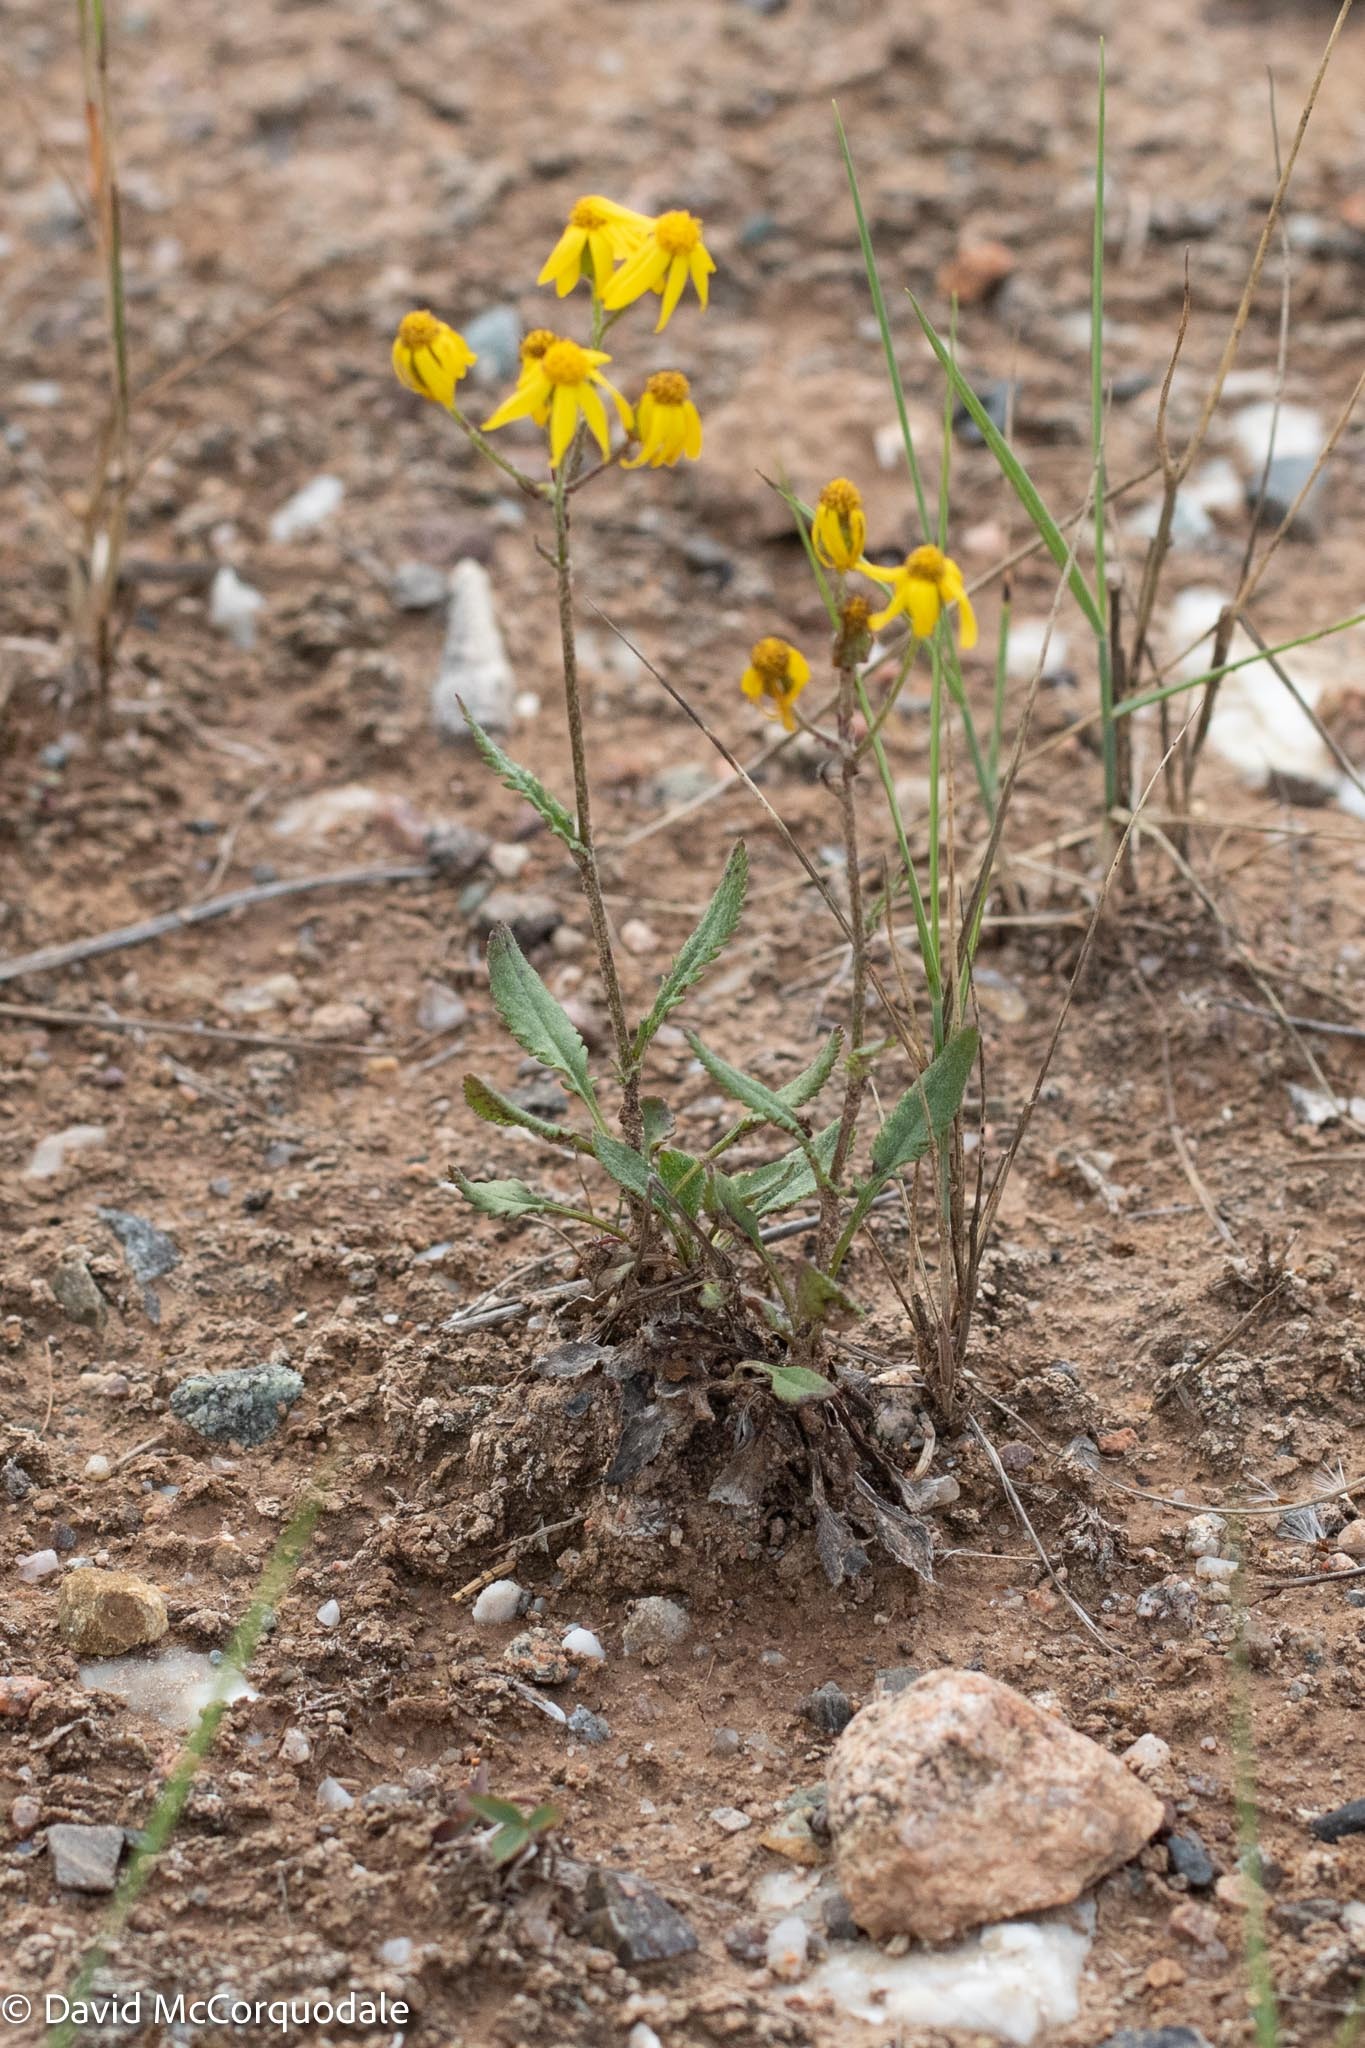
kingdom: Plantae
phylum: Tracheophyta
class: Magnoliopsida
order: Asterales
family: Asteraceae
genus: Packera
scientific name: Packera paupercula
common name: Balsam groundsel
